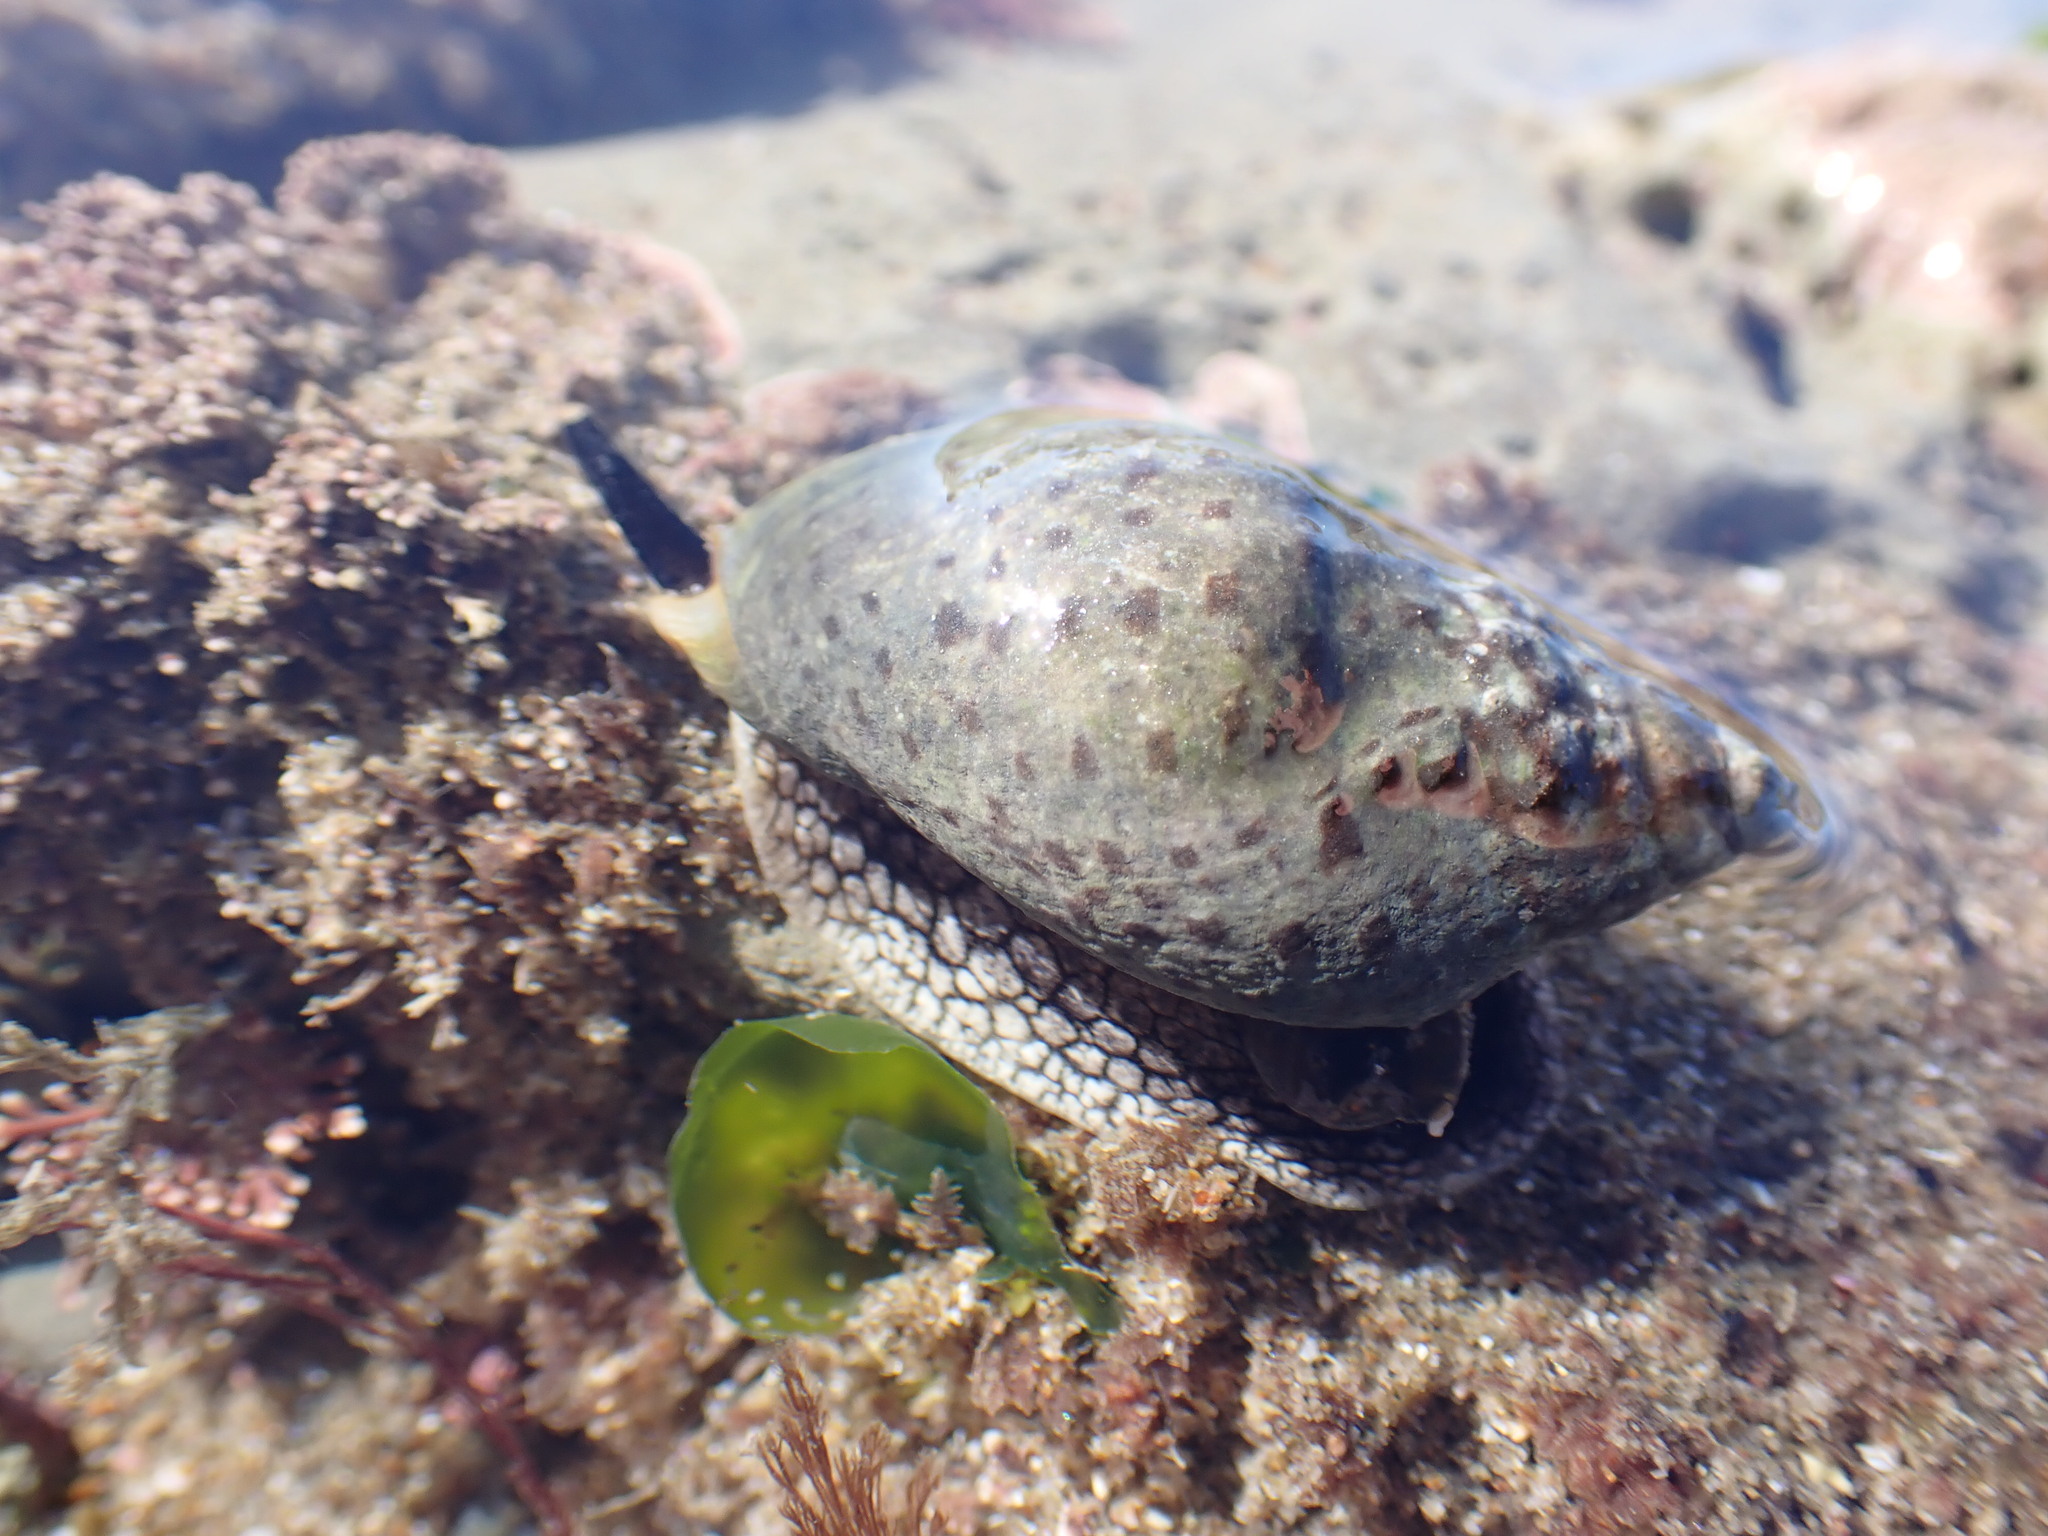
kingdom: Animalia
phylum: Mollusca
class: Gastropoda
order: Neogastropoda
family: Cominellidae
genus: Cominella
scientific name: Cominella maculosa
